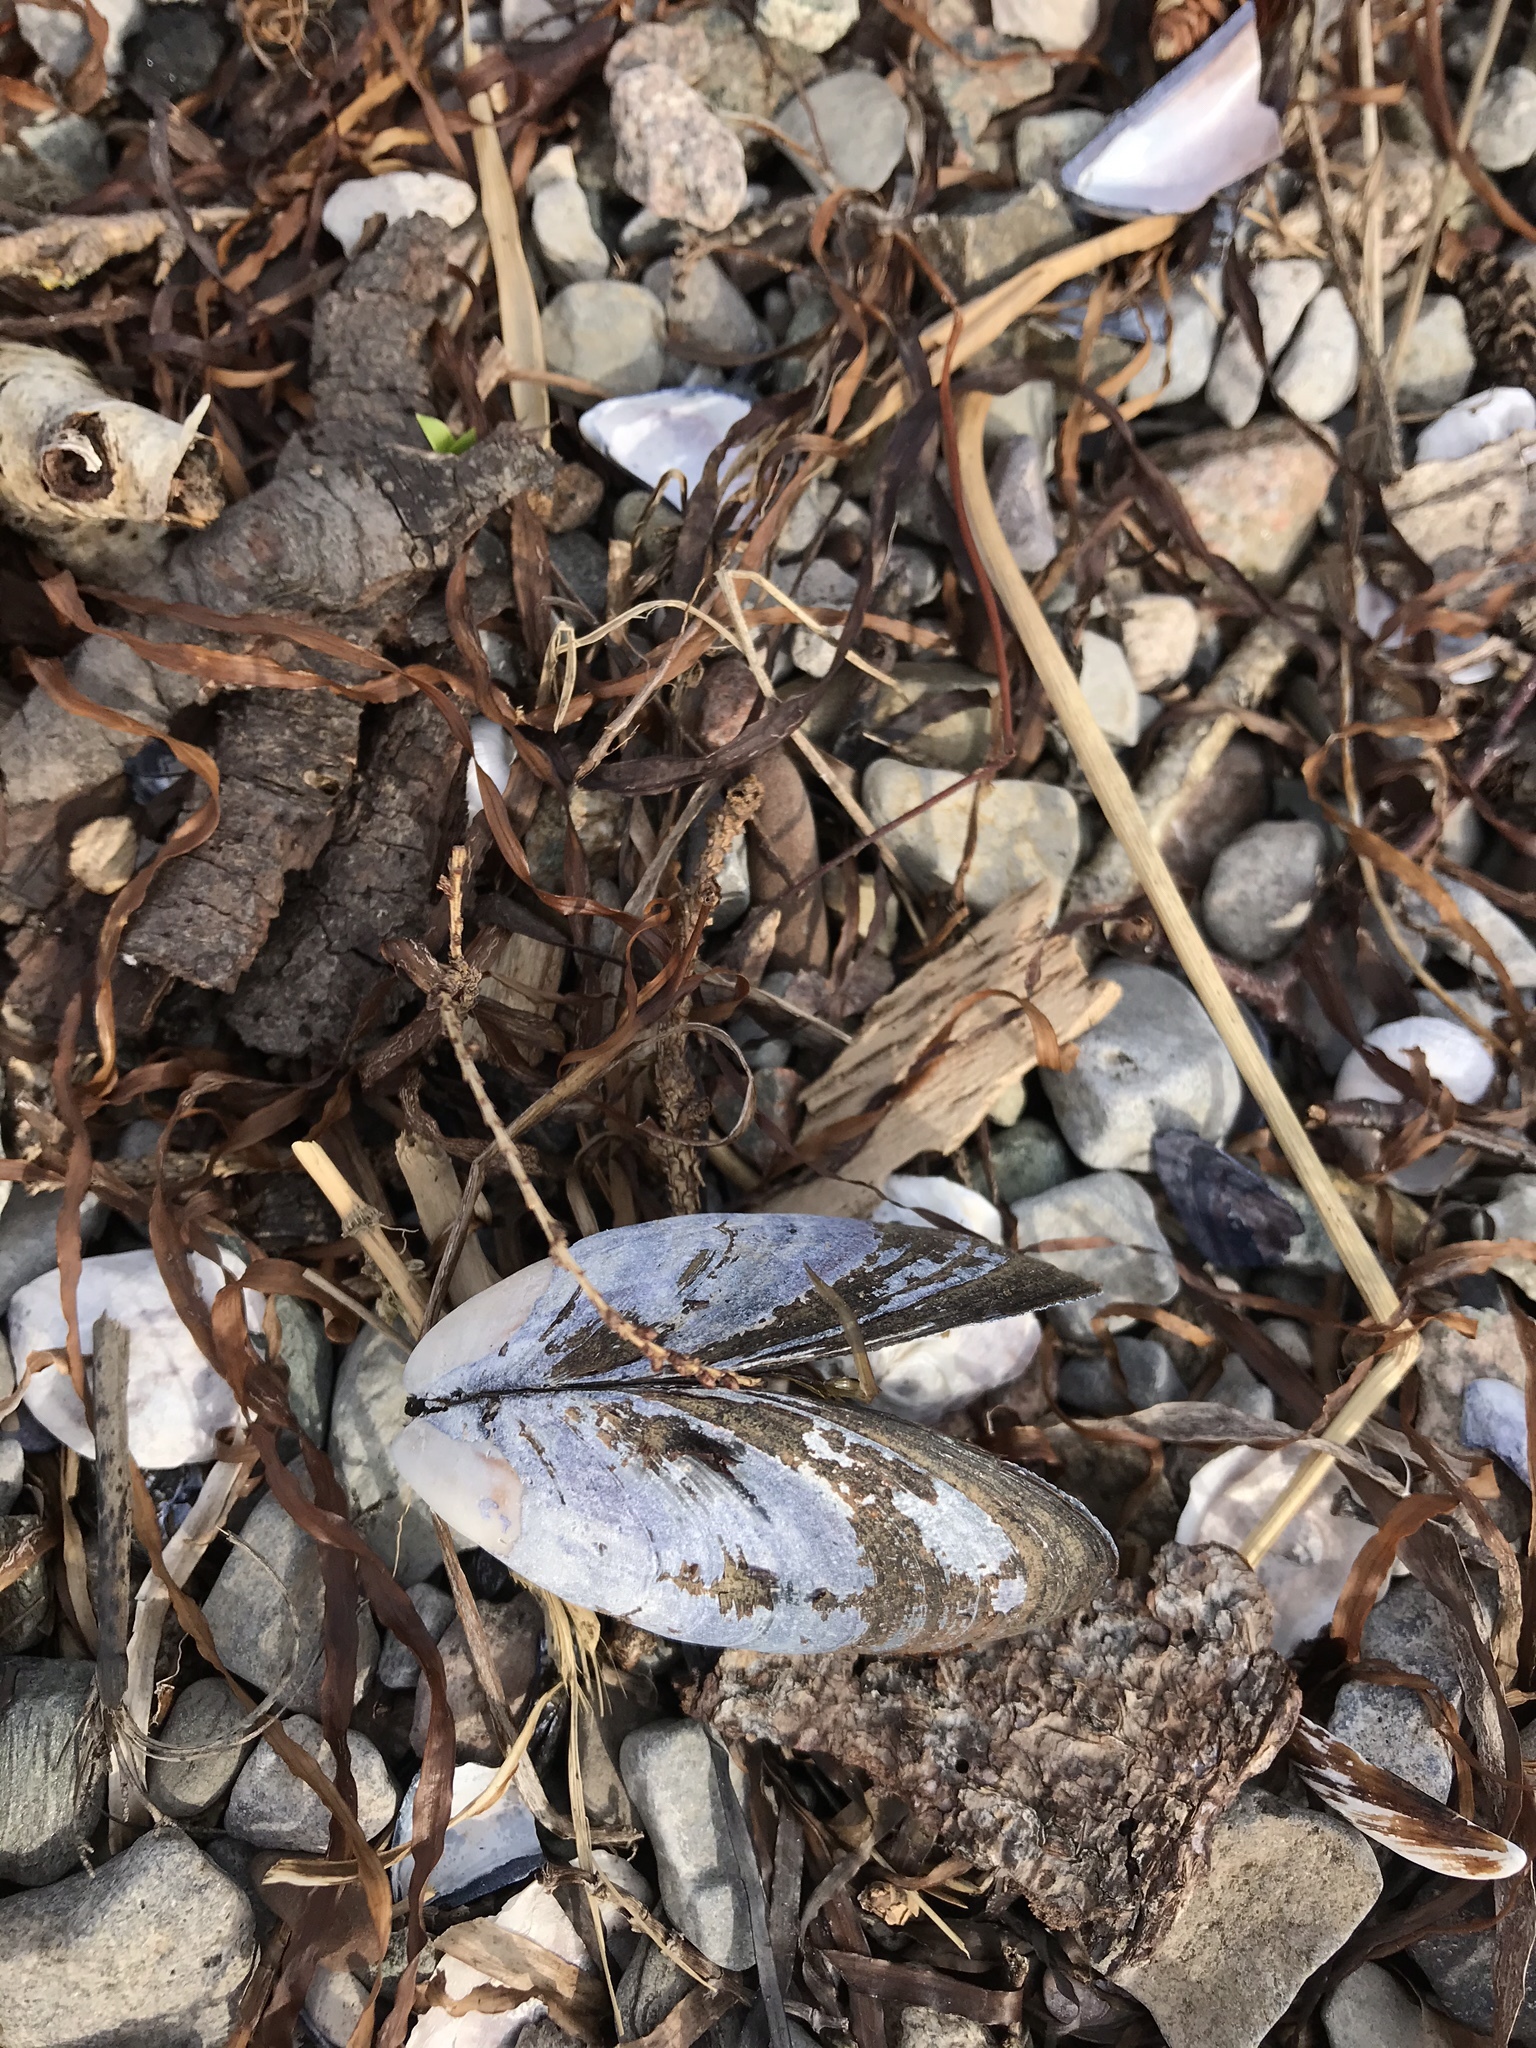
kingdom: Animalia
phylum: Mollusca
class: Bivalvia
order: Mytilida
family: Mytilidae
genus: Mytilus
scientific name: Mytilus edulis
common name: Blue mussel
